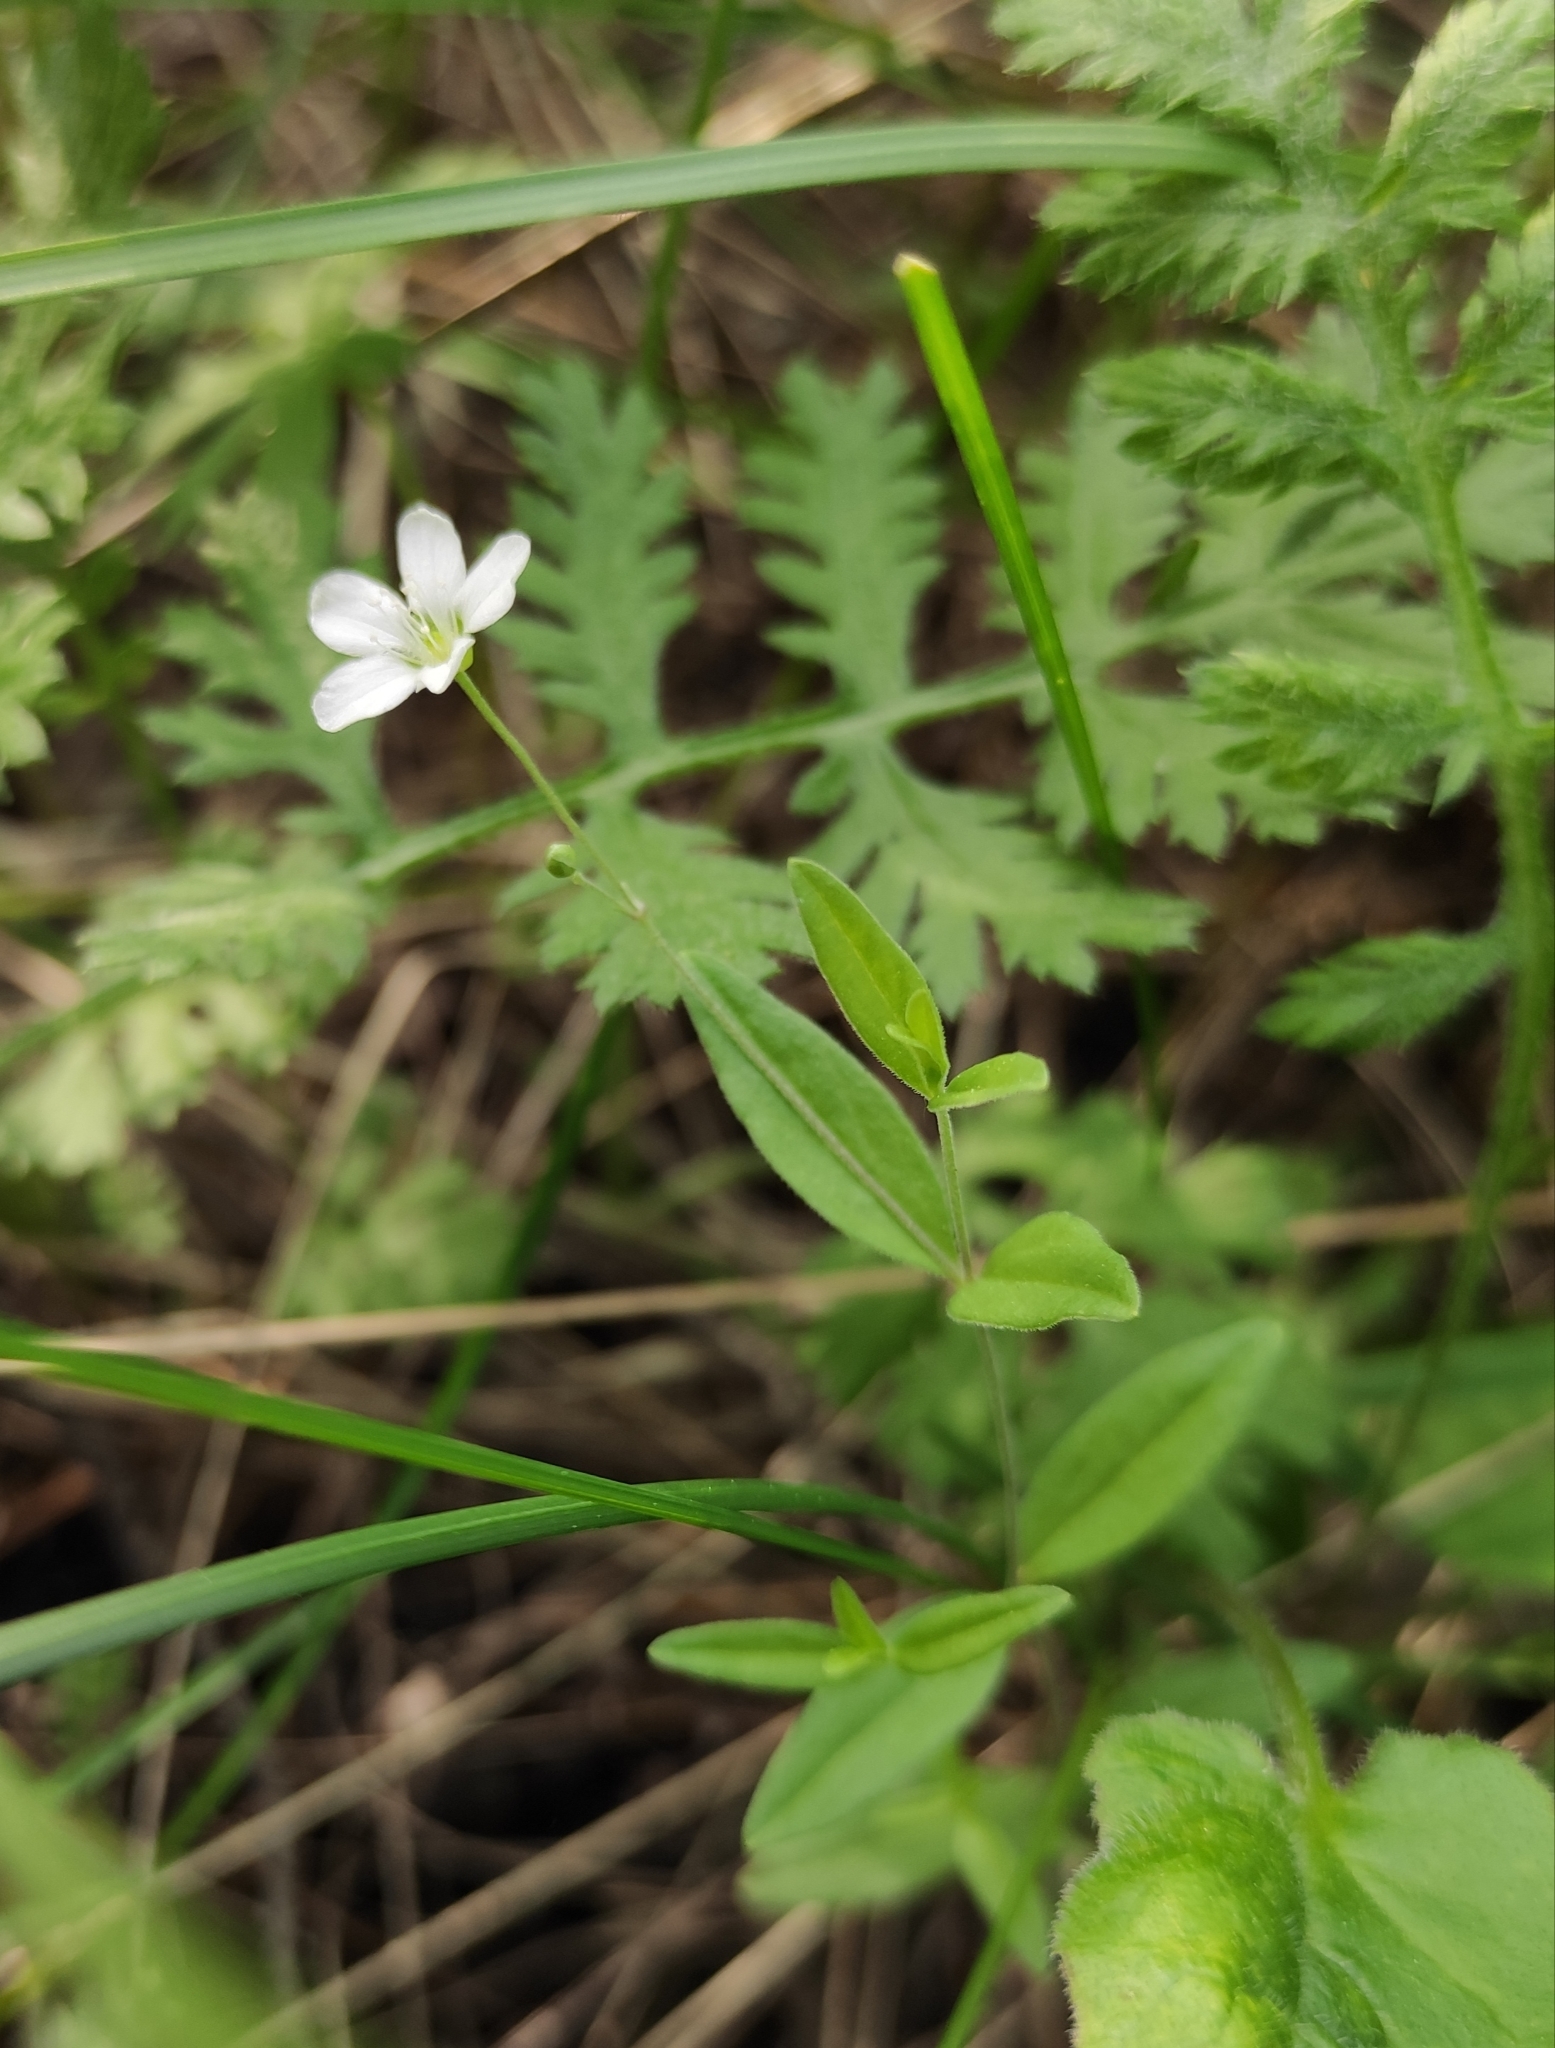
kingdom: Plantae
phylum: Tracheophyta
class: Magnoliopsida
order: Caryophyllales
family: Caryophyllaceae
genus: Moehringia
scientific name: Moehringia lateriflora
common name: Blunt-leaved sandwort
